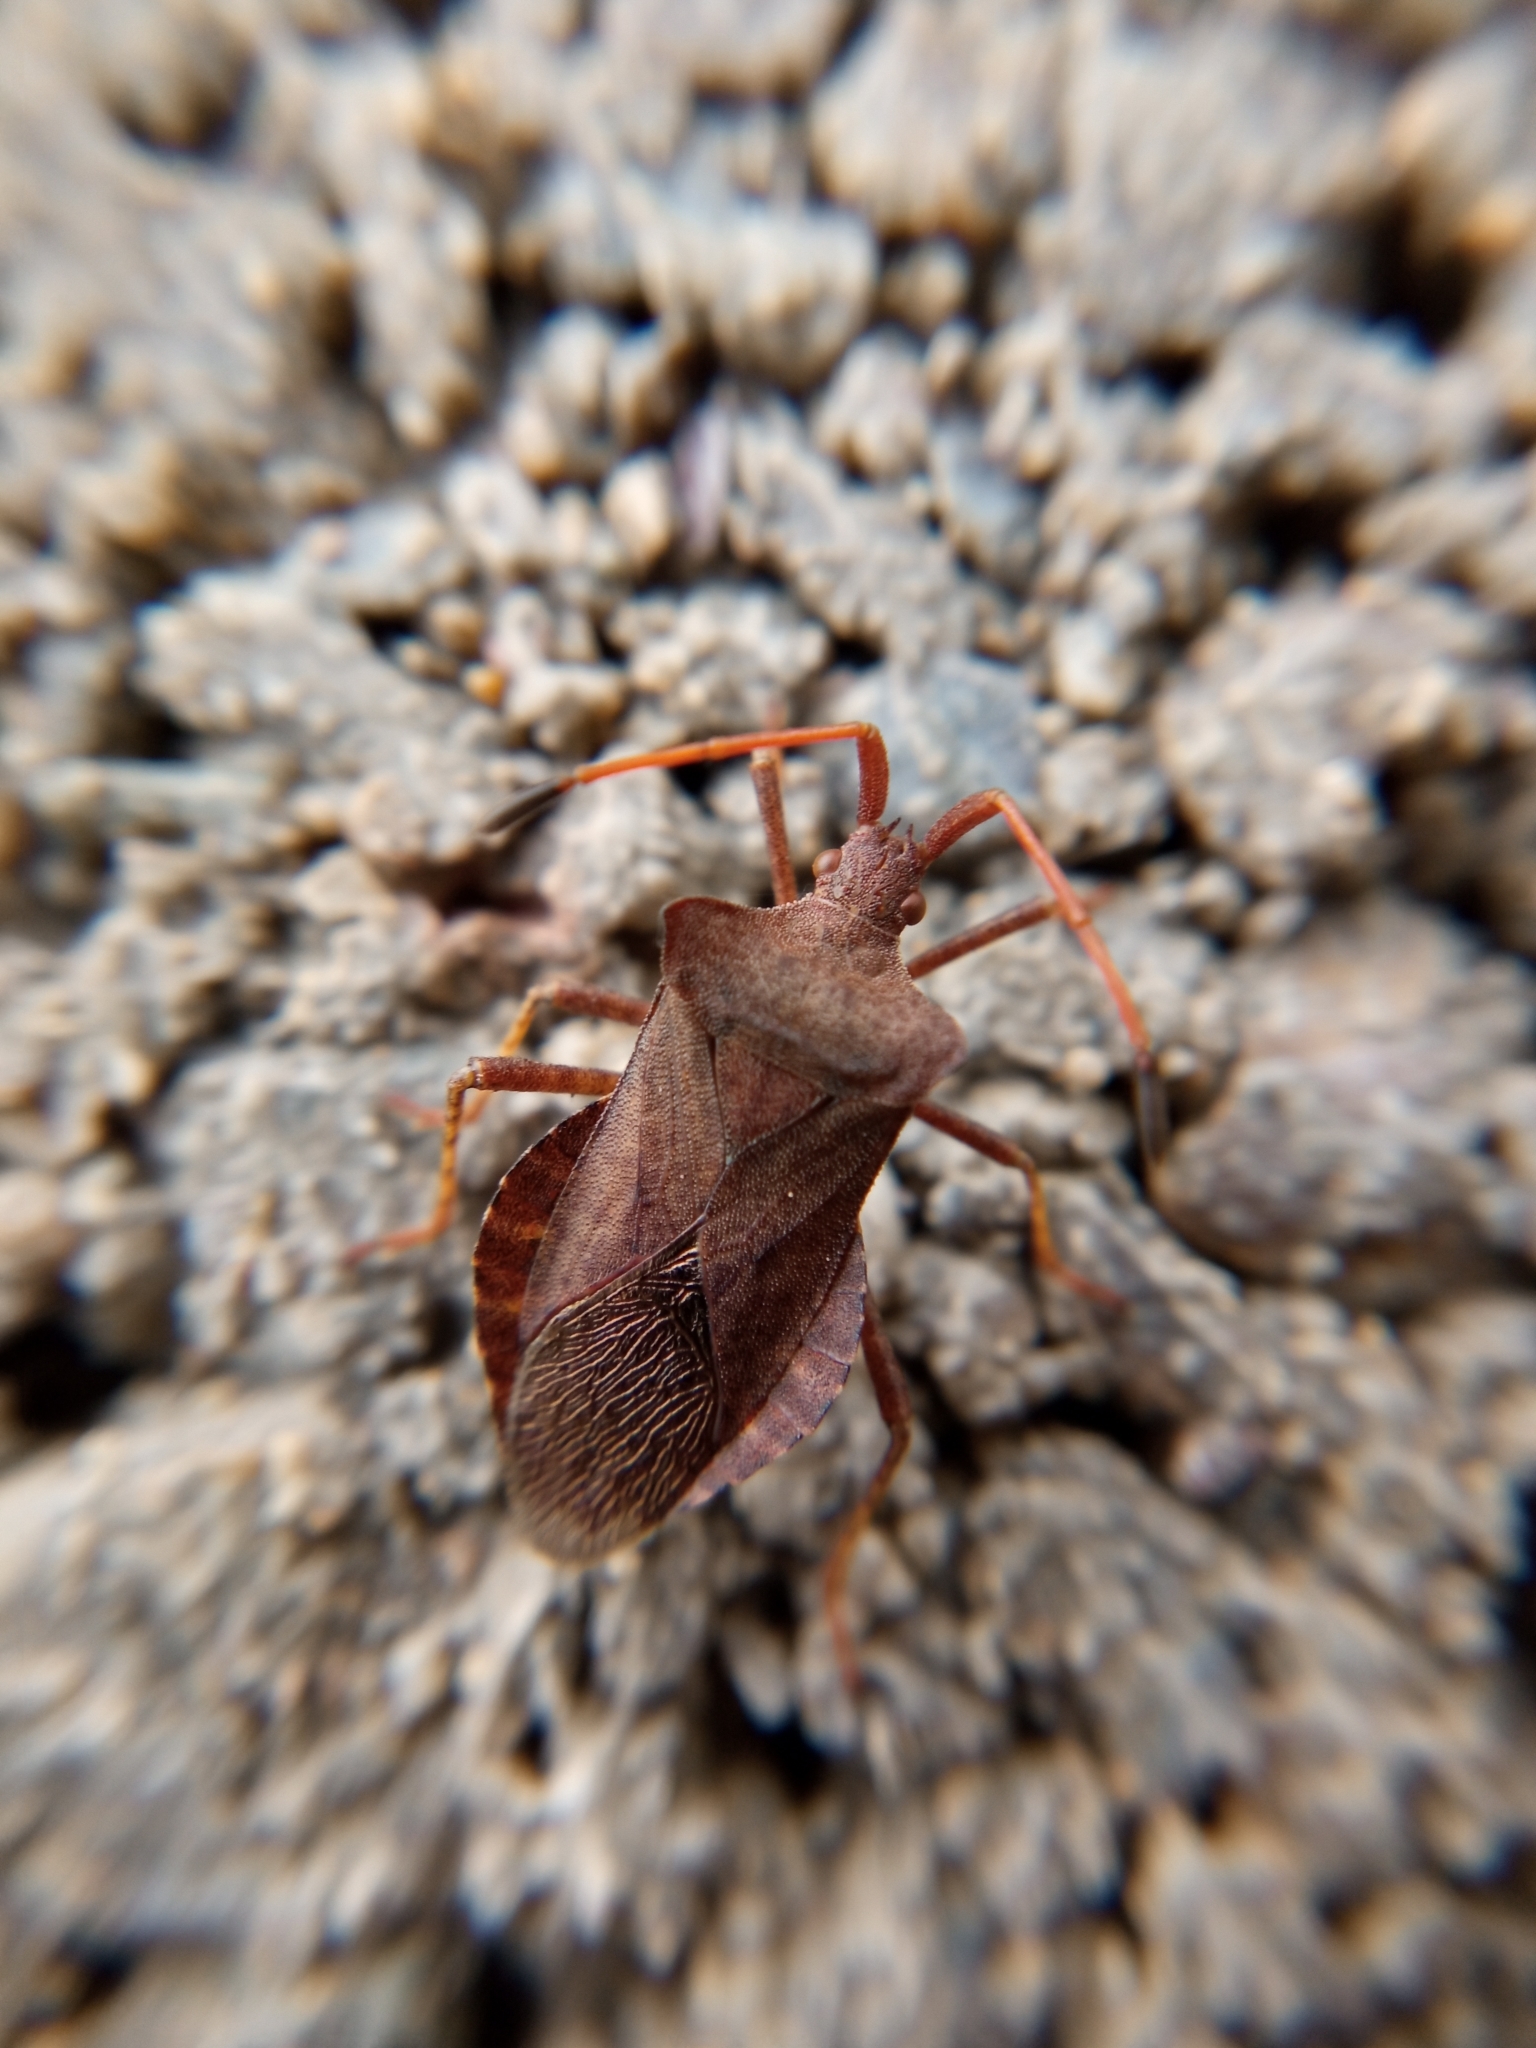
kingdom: Animalia
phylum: Arthropoda
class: Insecta
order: Hemiptera
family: Coreidae
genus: Coreus
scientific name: Coreus marginatus
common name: Dock bug
